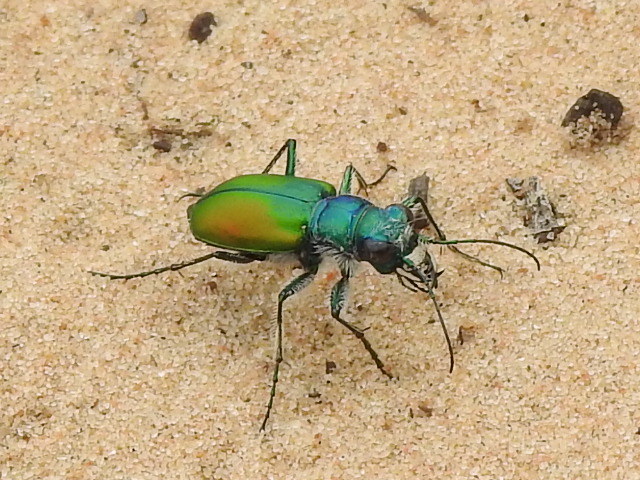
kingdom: Animalia
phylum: Arthropoda
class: Insecta
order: Coleoptera
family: Carabidae
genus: Cicindela
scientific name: Cicindela scutellaris
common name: Festive tiger beetle
